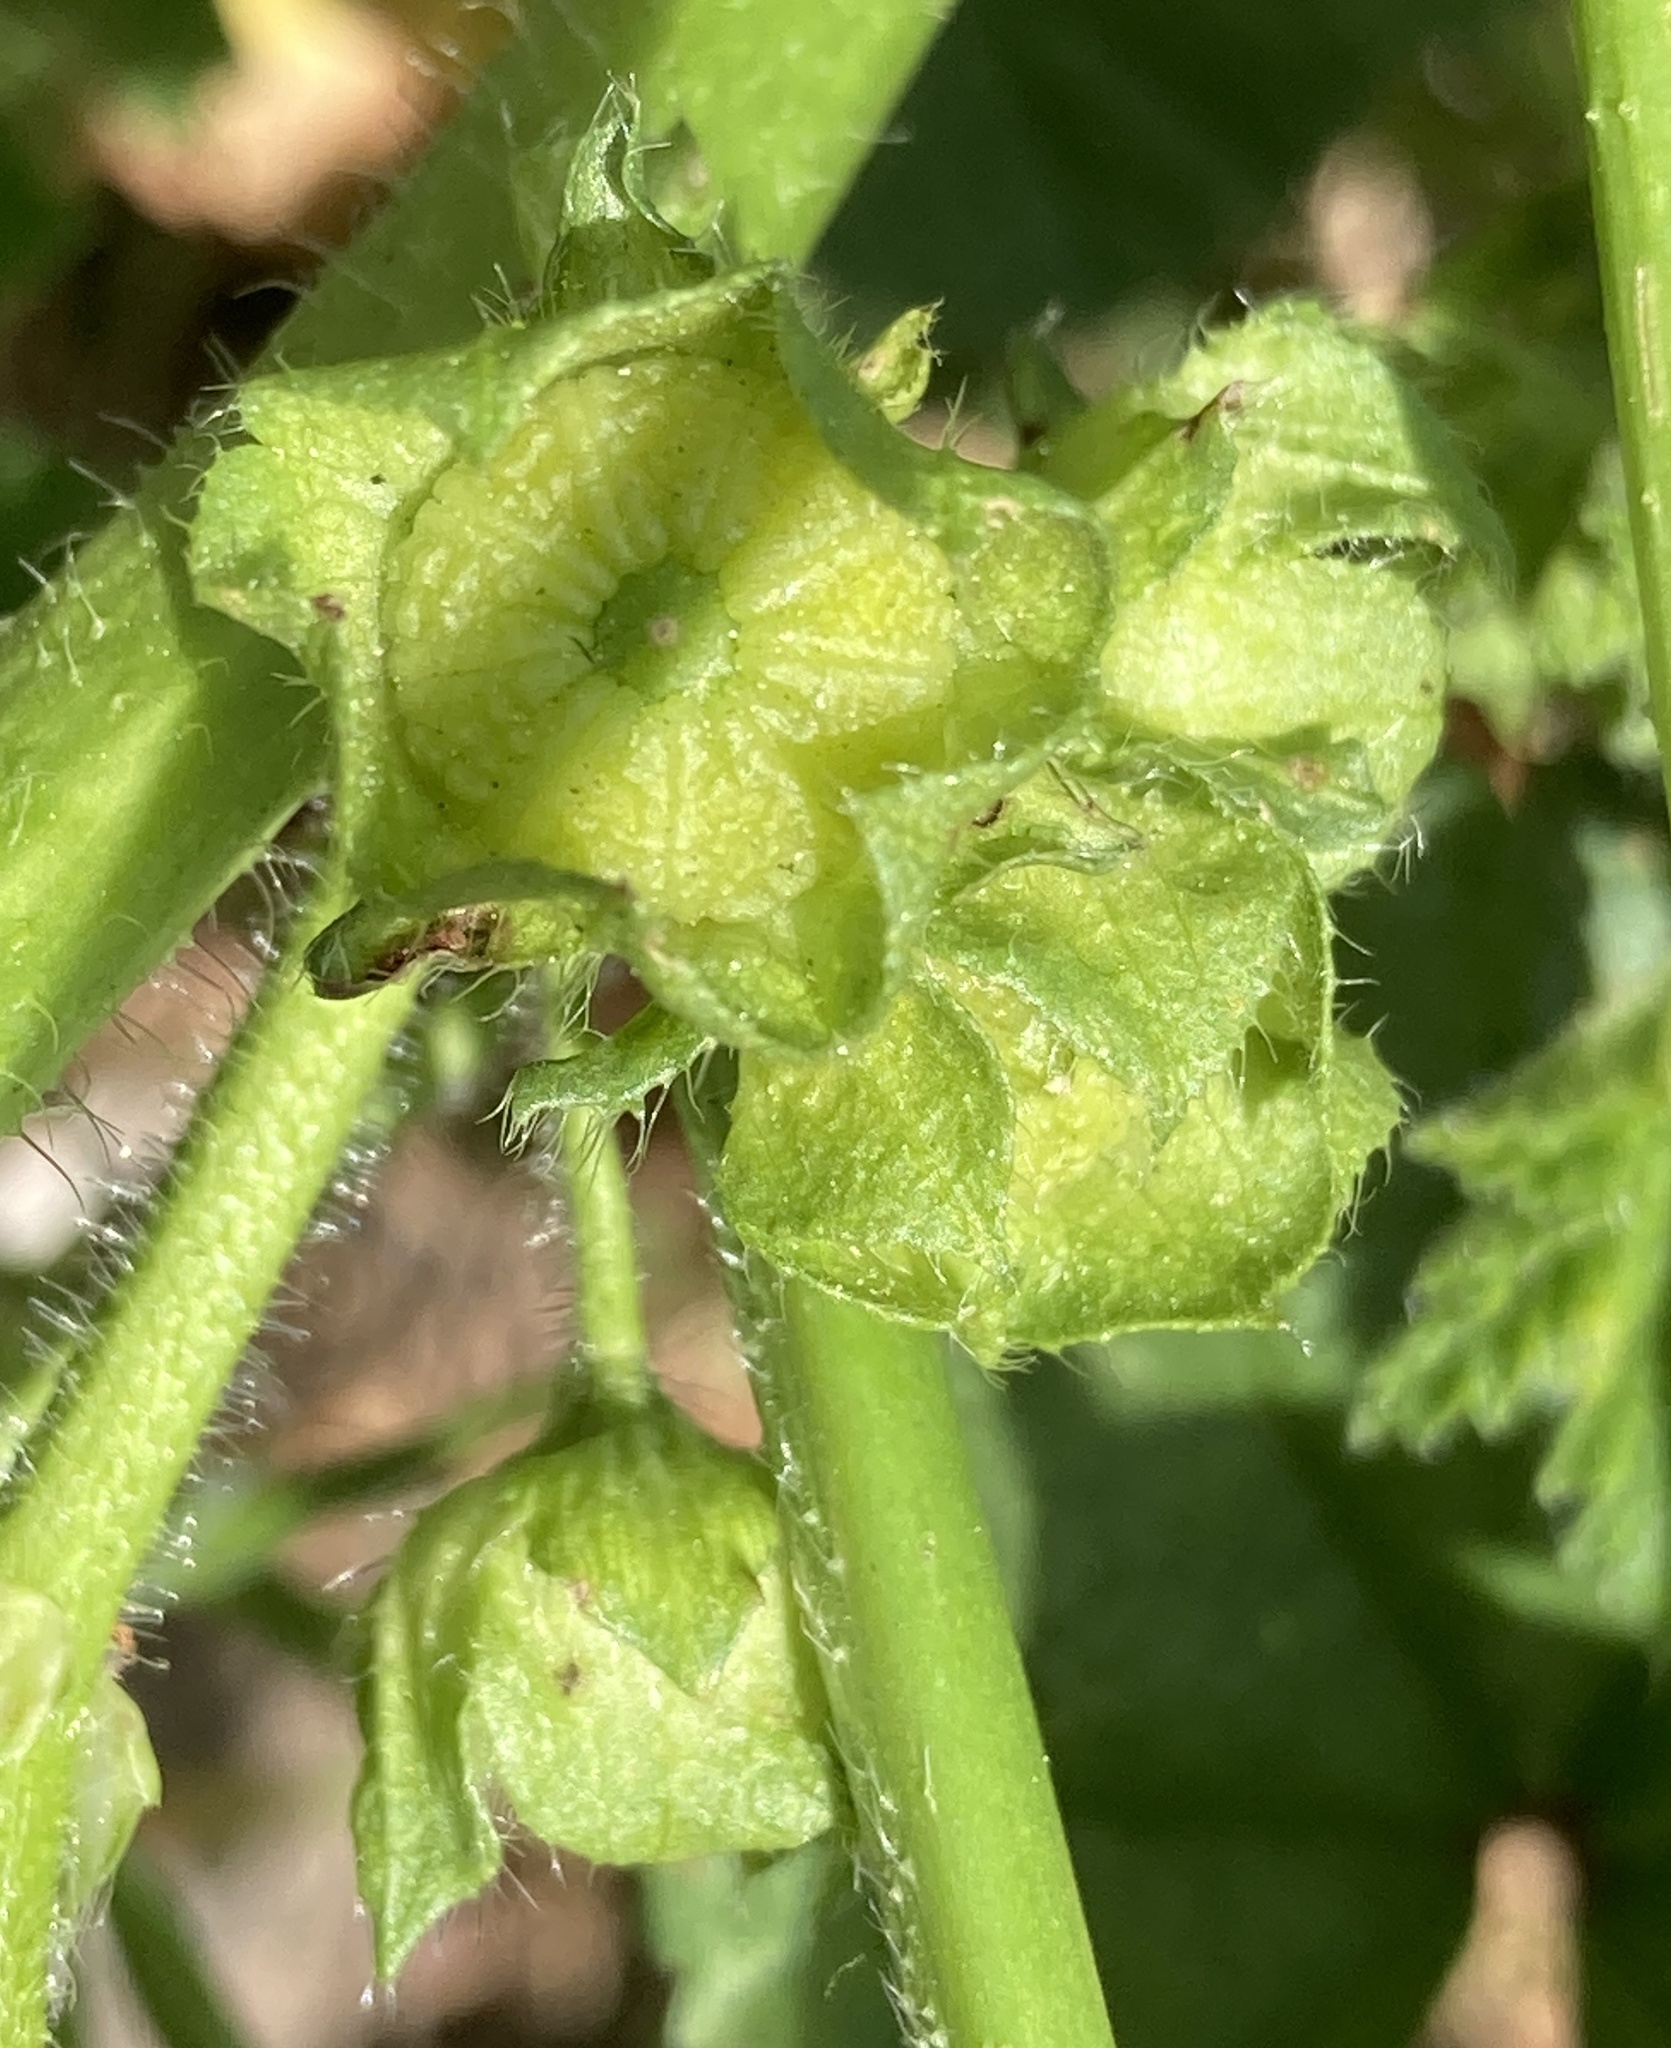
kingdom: Plantae
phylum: Tracheophyta
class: Magnoliopsida
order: Malvales
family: Malvaceae
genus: Malva
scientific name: Malva nicaeensis
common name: French mallow
